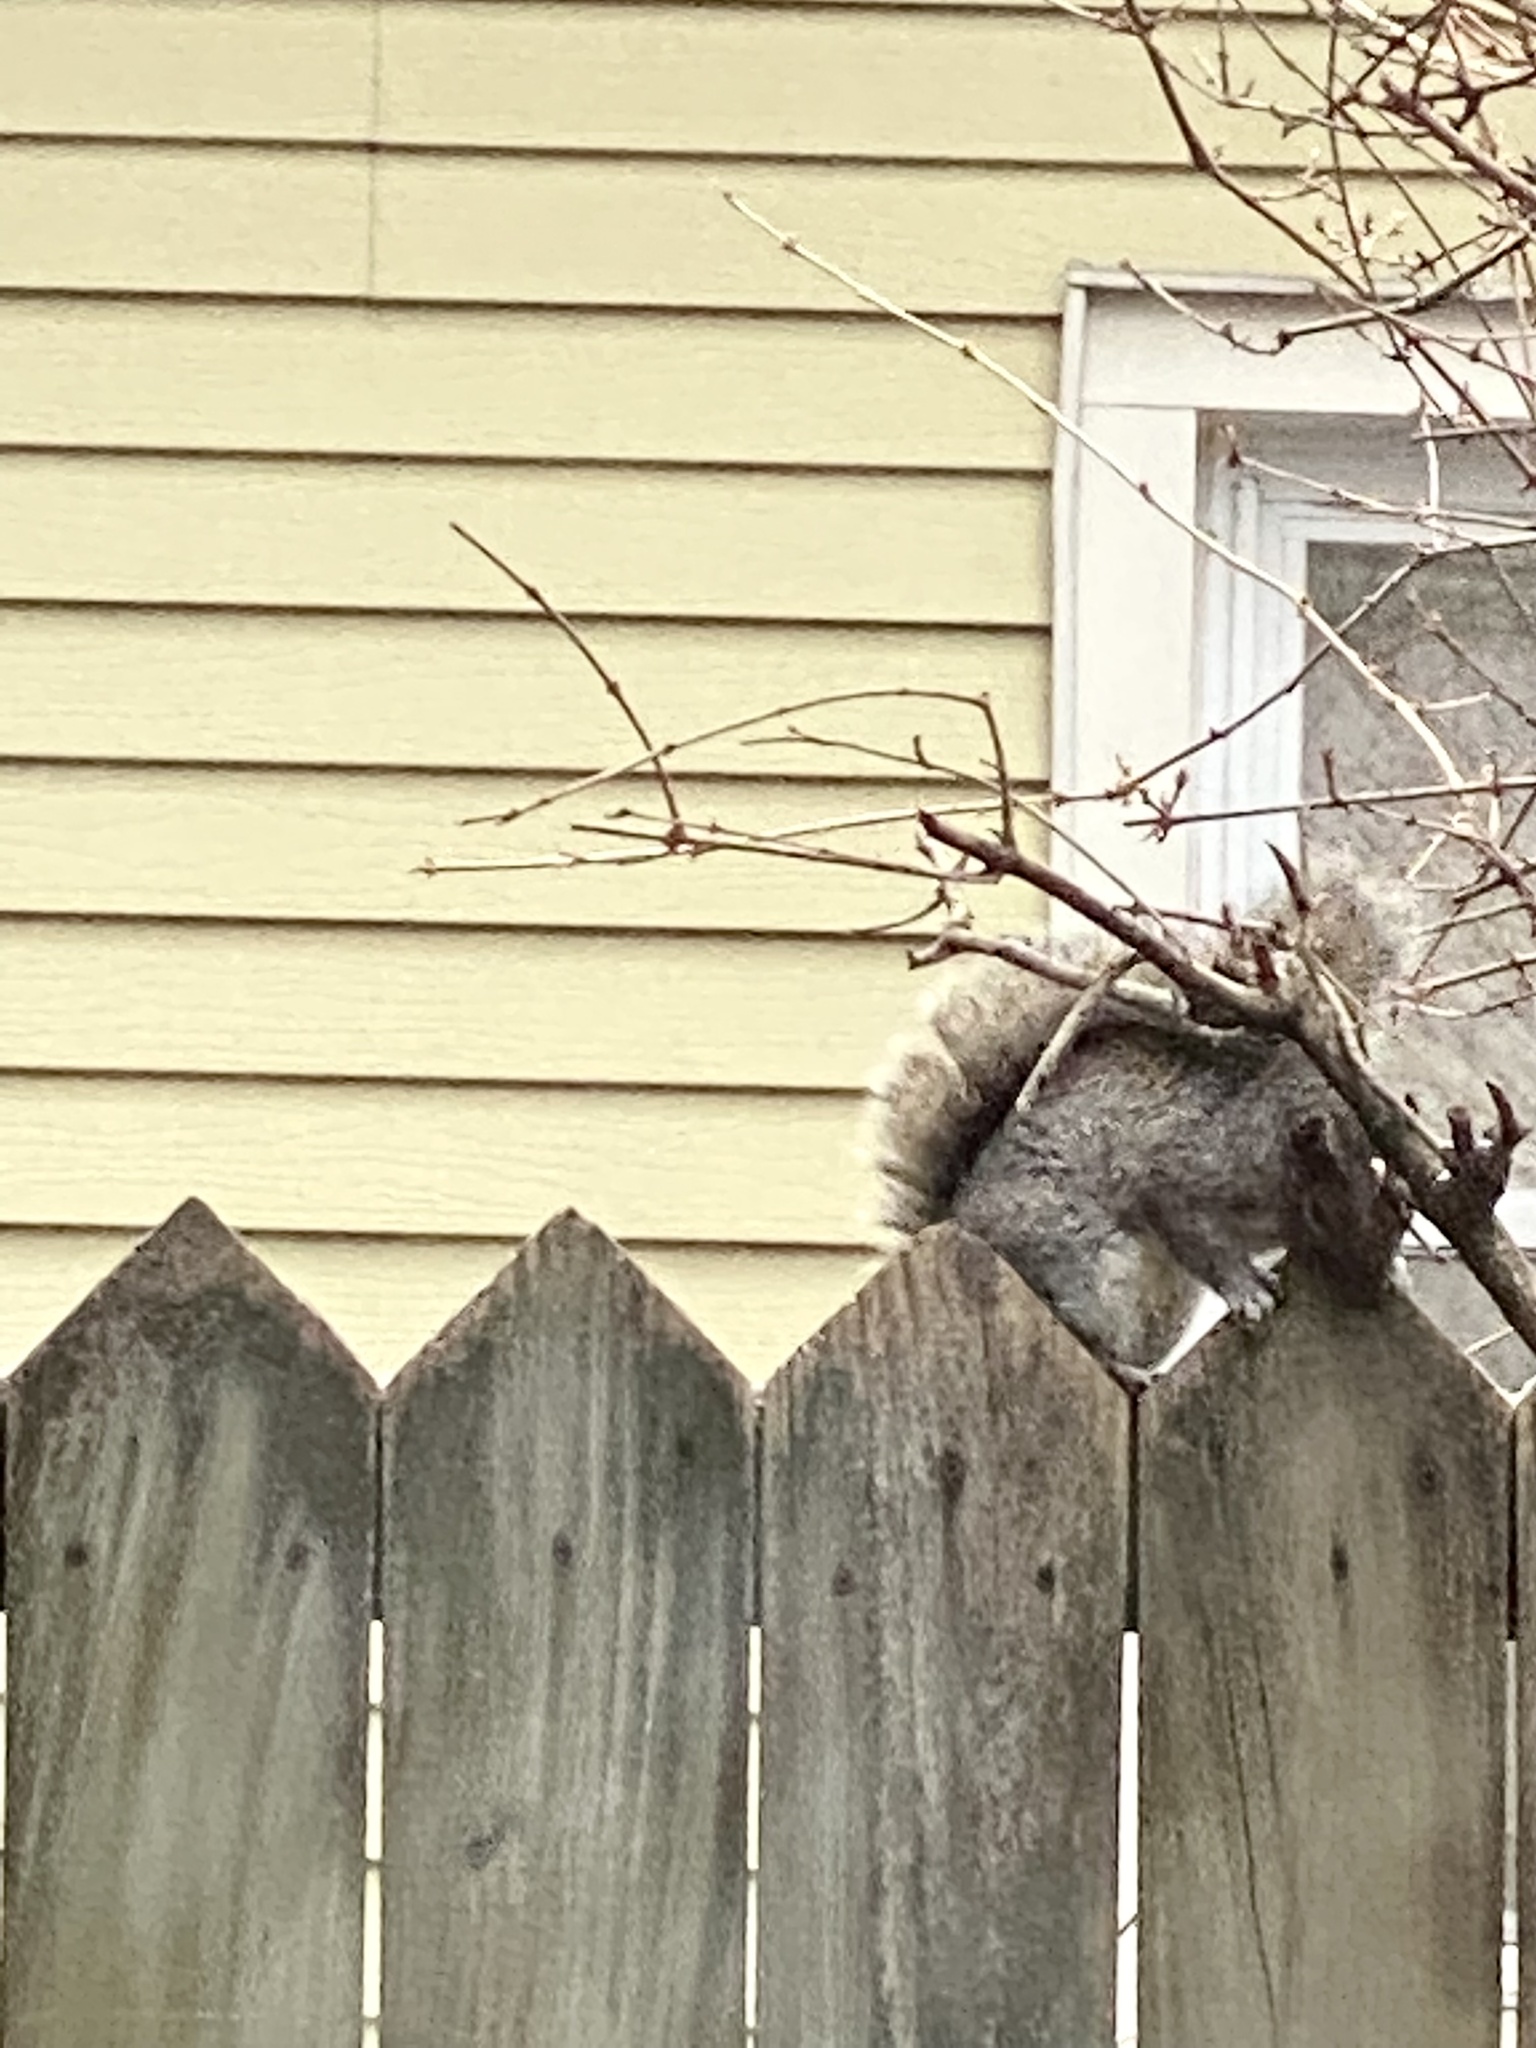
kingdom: Animalia
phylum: Chordata
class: Mammalia
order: Rodentia
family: Sciuridae
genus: Sciurus
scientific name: Sciurus carolinensis
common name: Eastern gray squirrel
